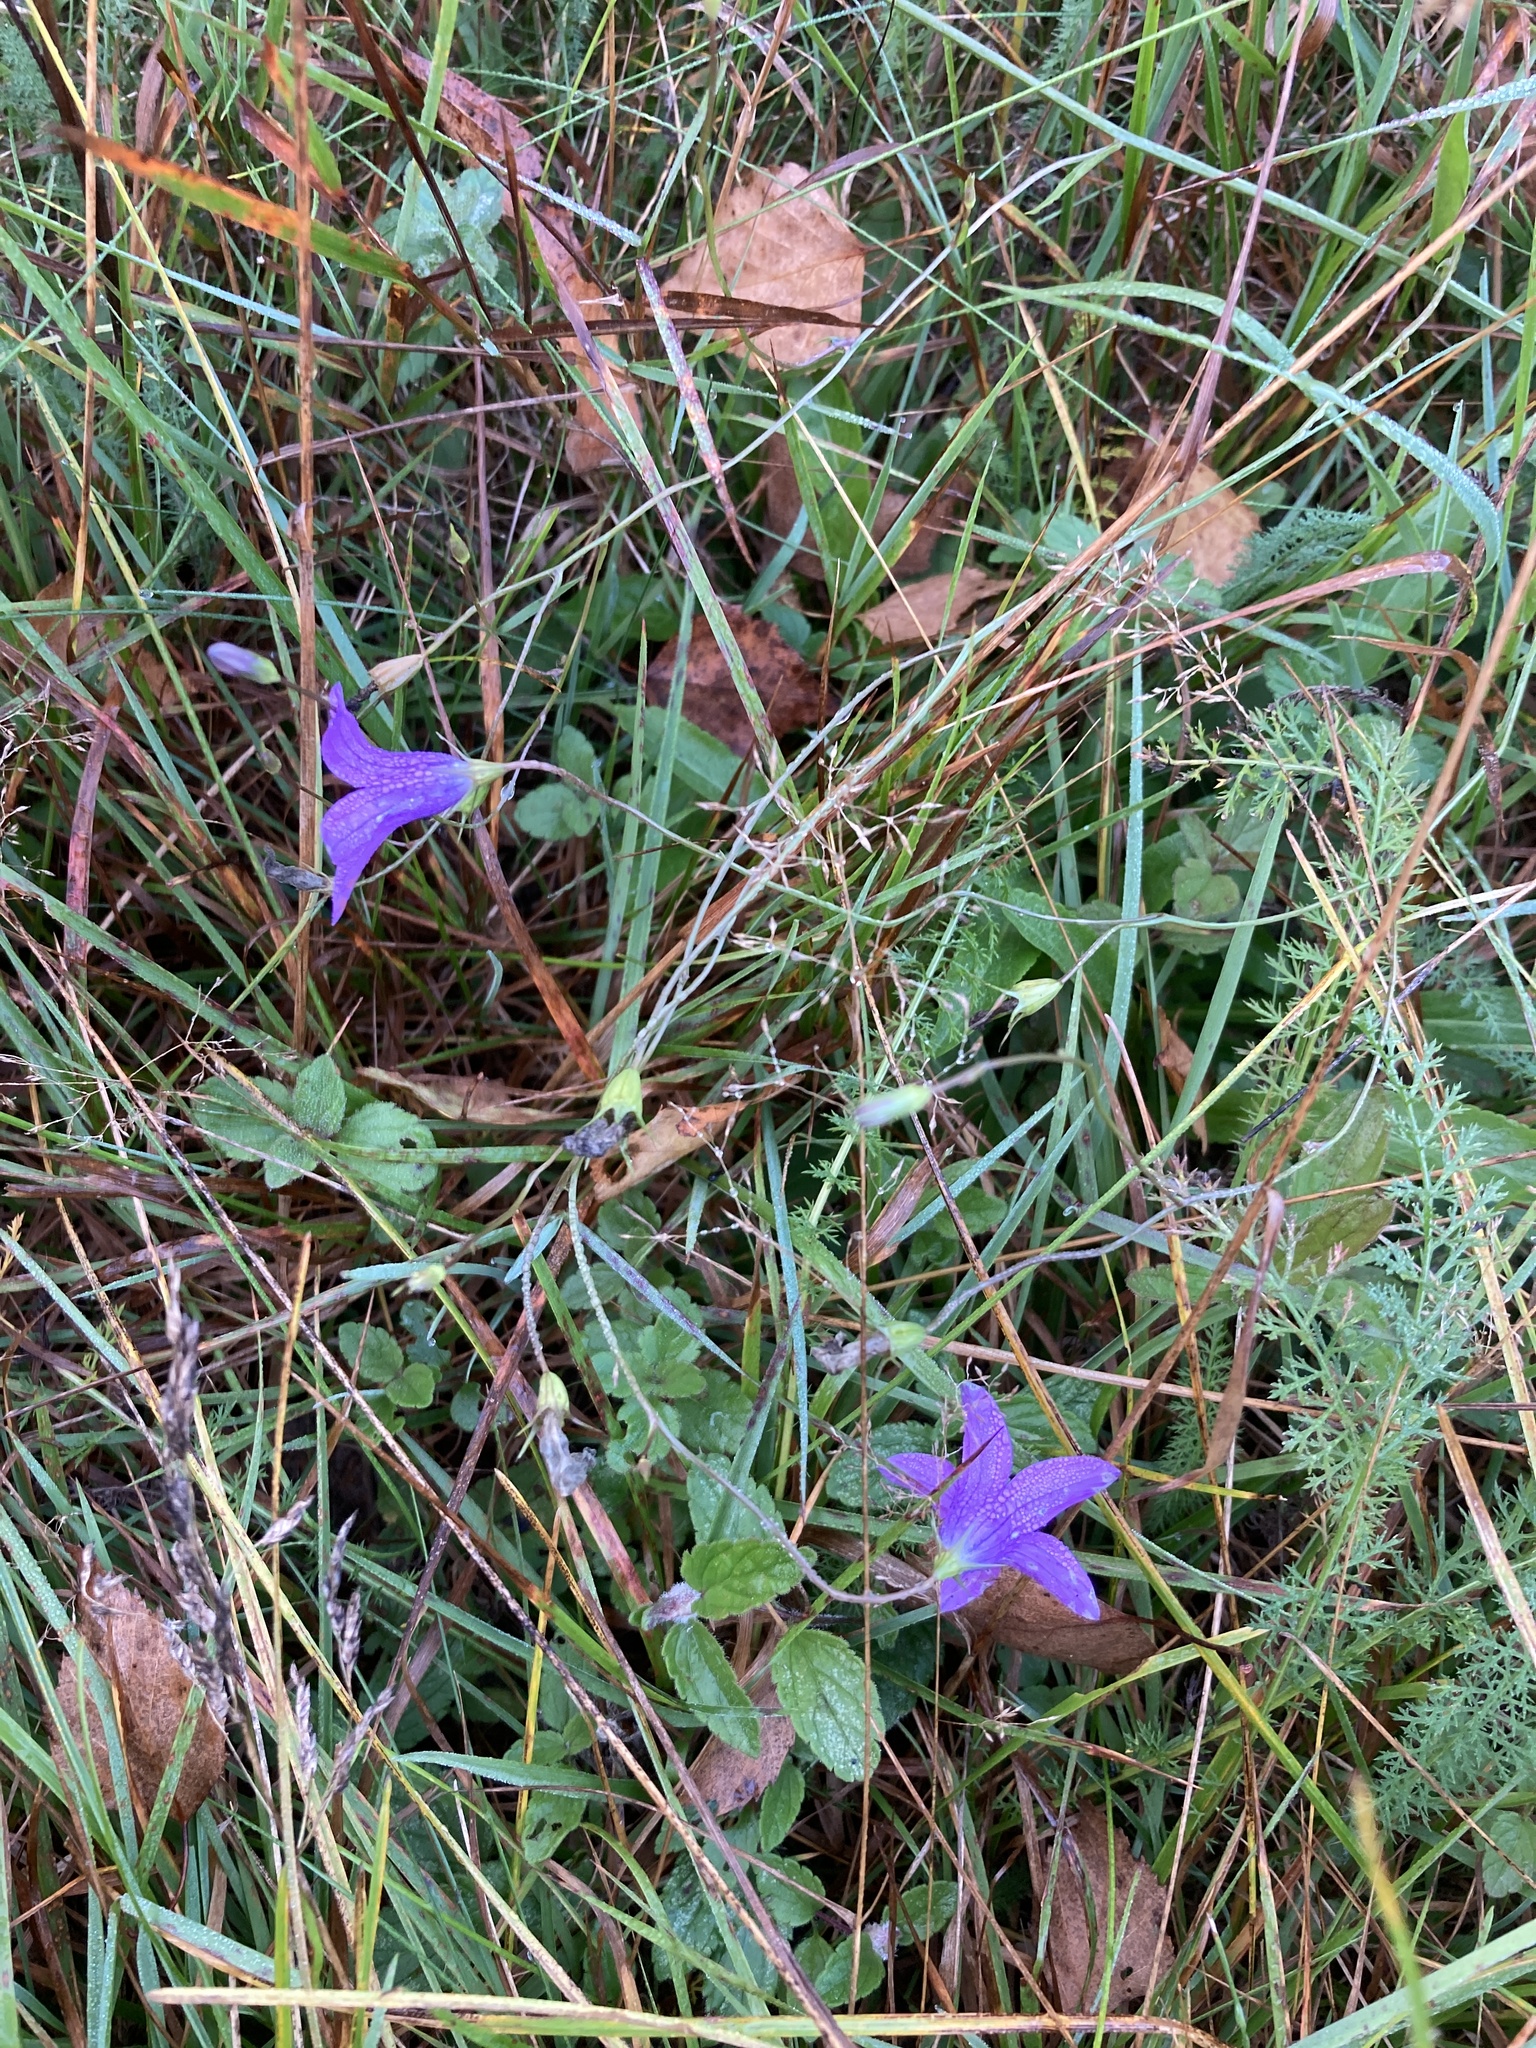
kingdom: Plantae
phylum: Tracheophyta
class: Magnoliopsida
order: Asterales
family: Campanulaceae
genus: Campanula
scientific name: Campanula patula
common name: Spreading bellflower
